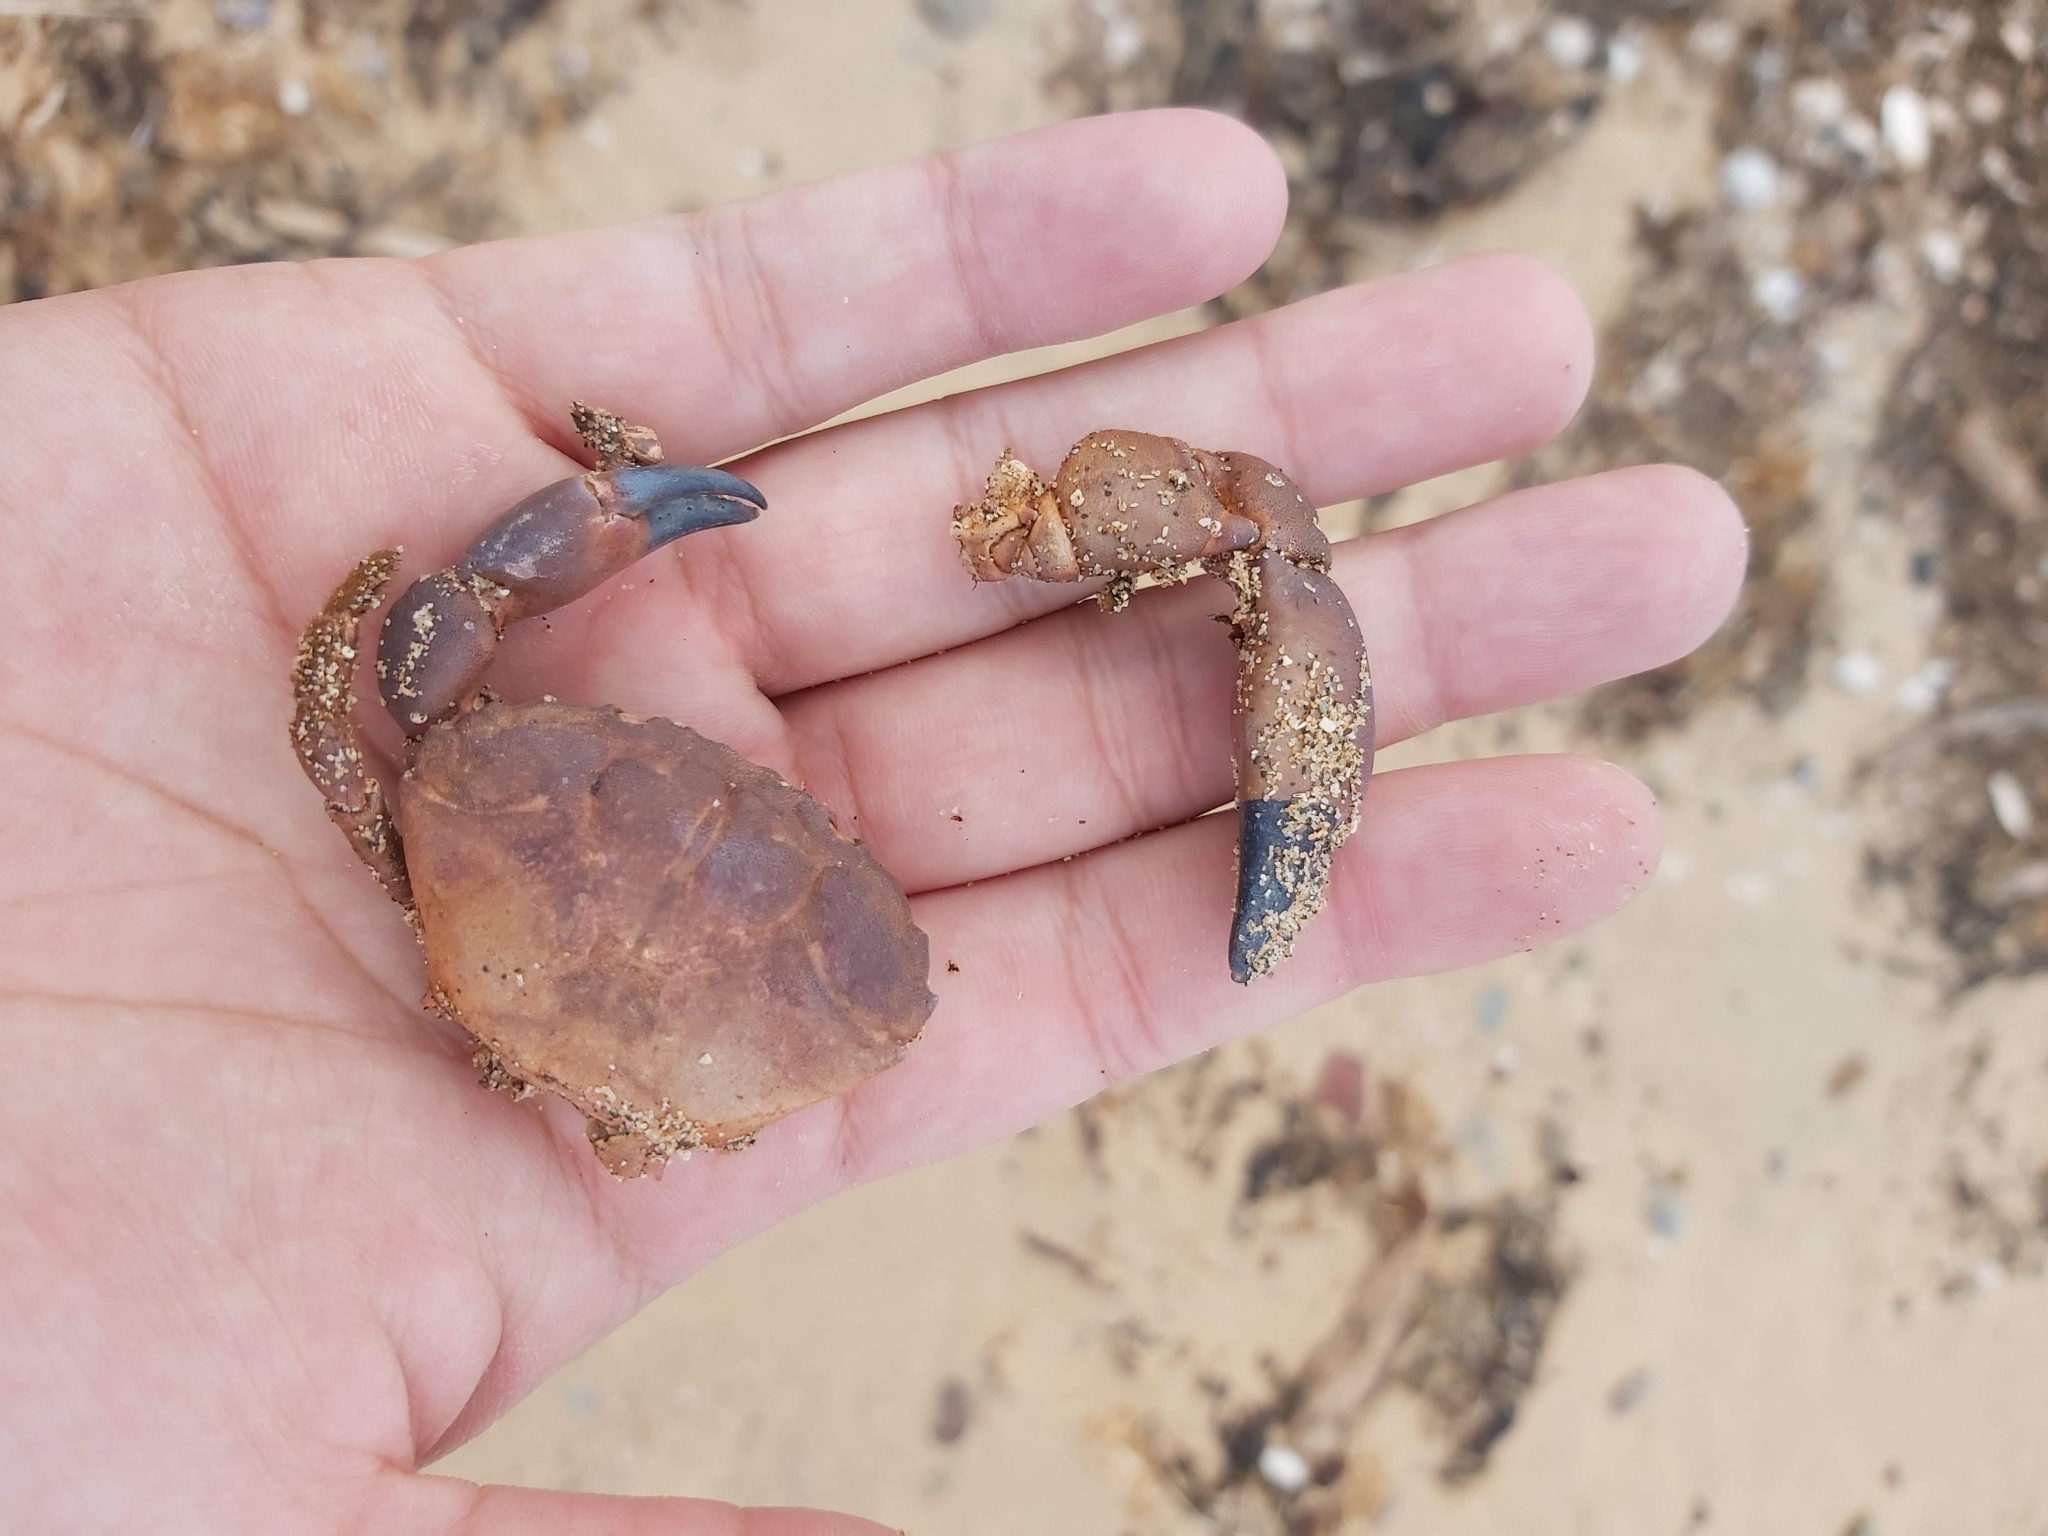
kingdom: Animalia
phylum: Arthropoda
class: Malacostraca
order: Decapoda
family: Oziidae
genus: Ozius
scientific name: Ozius truncatus
